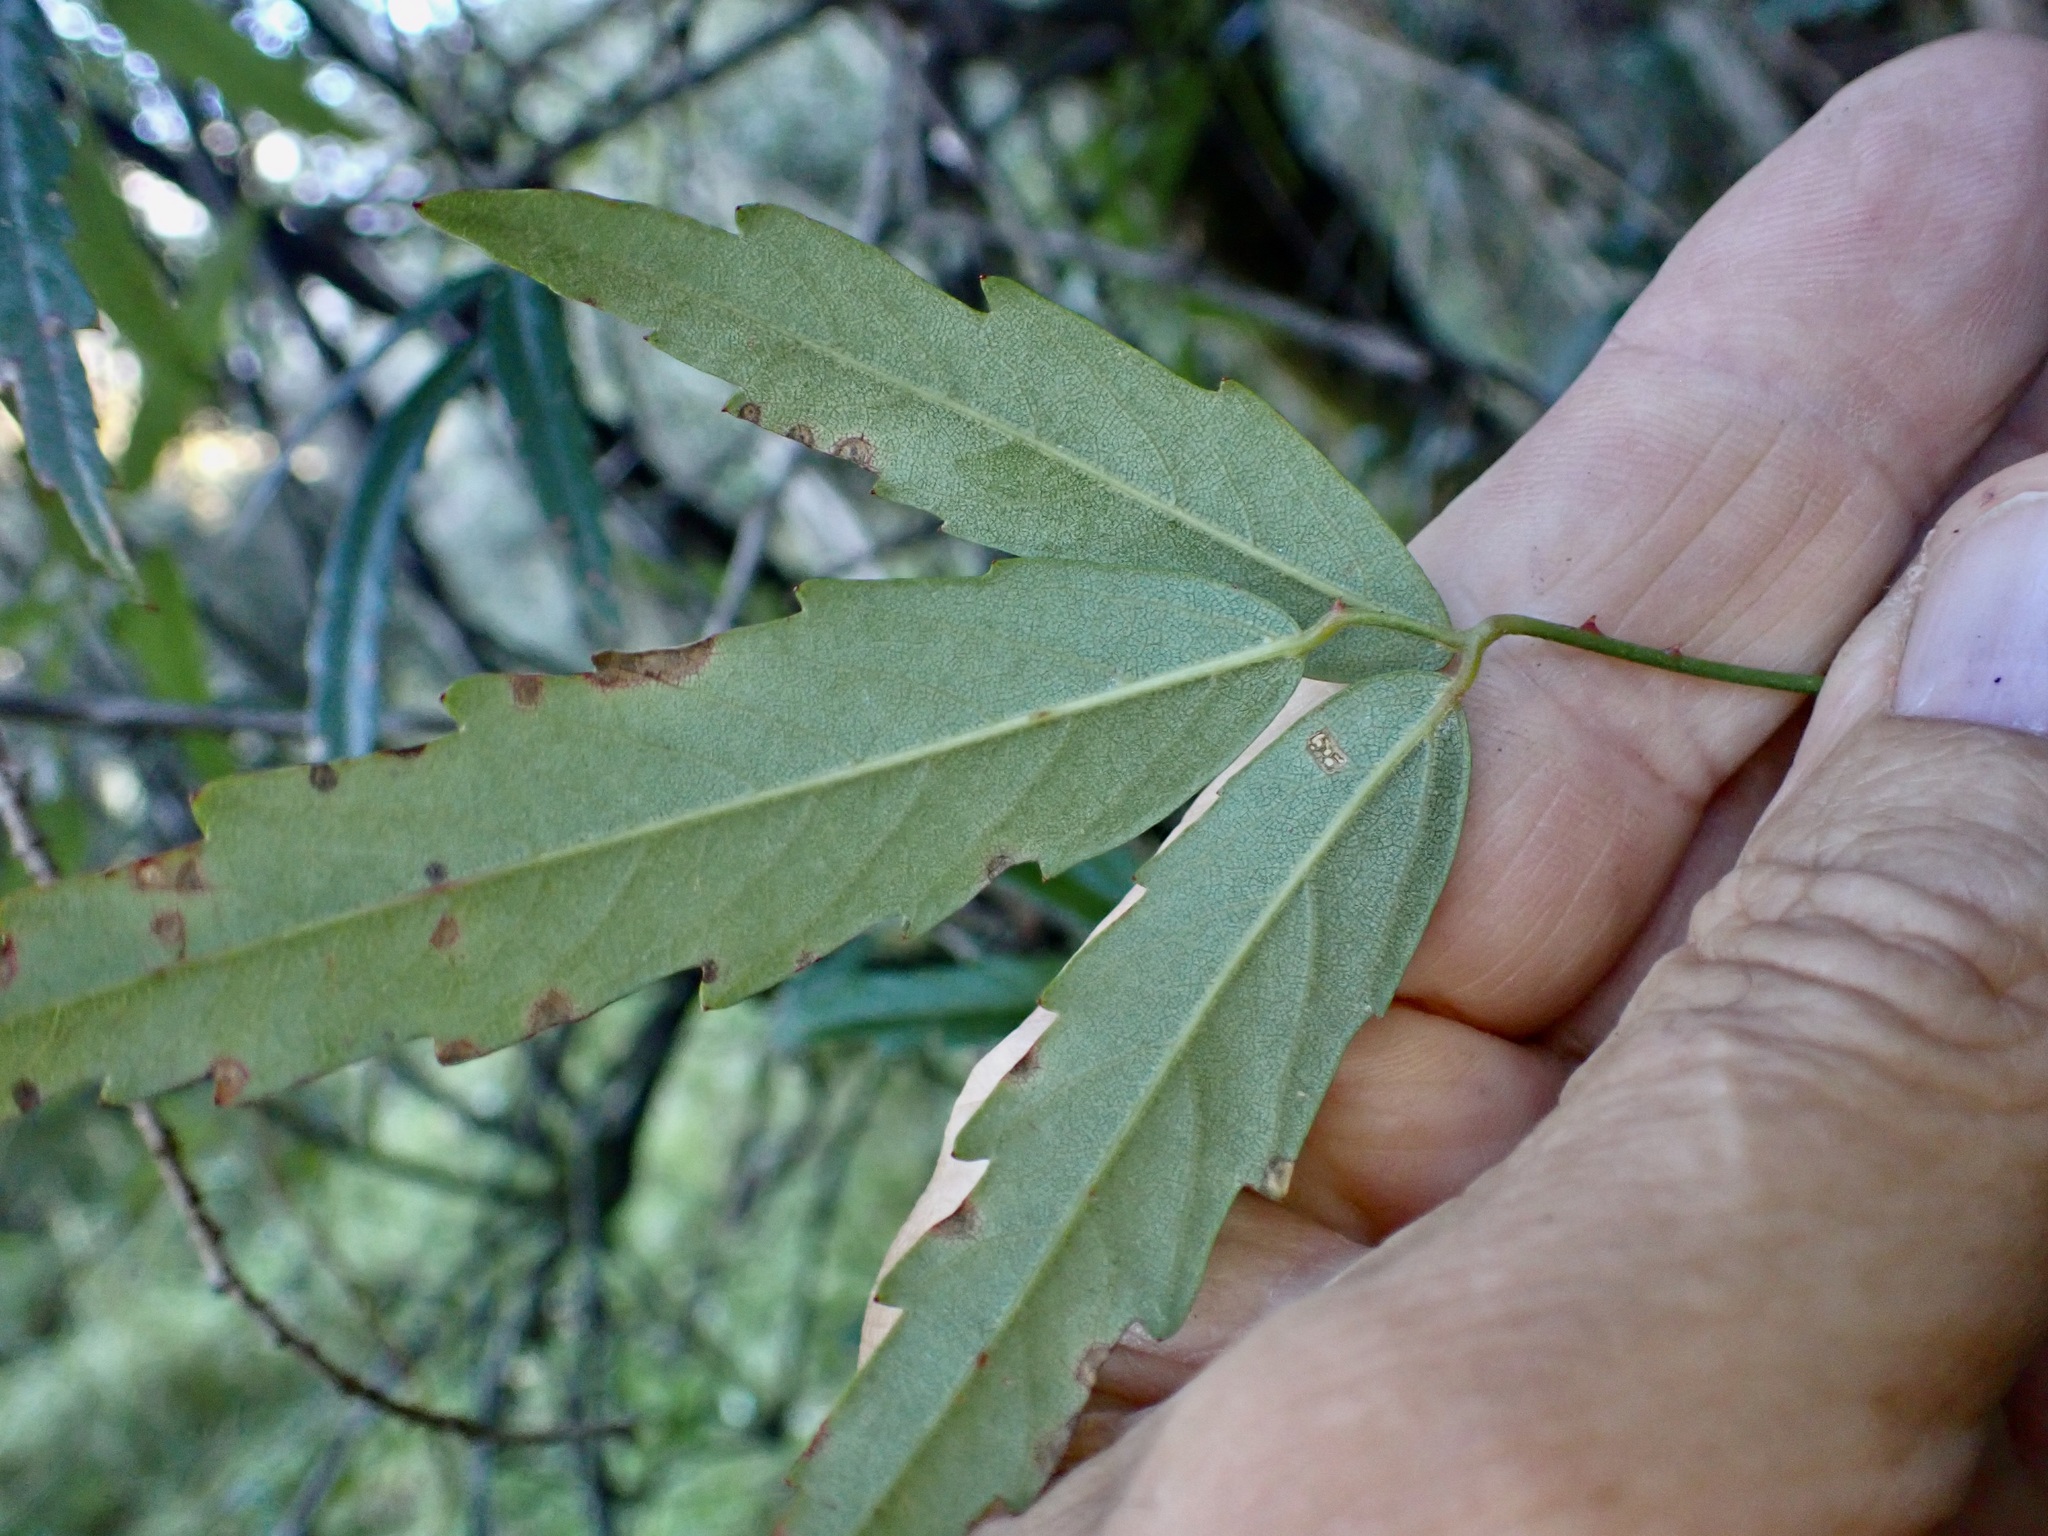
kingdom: Plantae
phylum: Tracheophyta
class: Magnoliopsida
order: Rosales
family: Rosaceae
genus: Rubus
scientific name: Rubus schmidelioides
